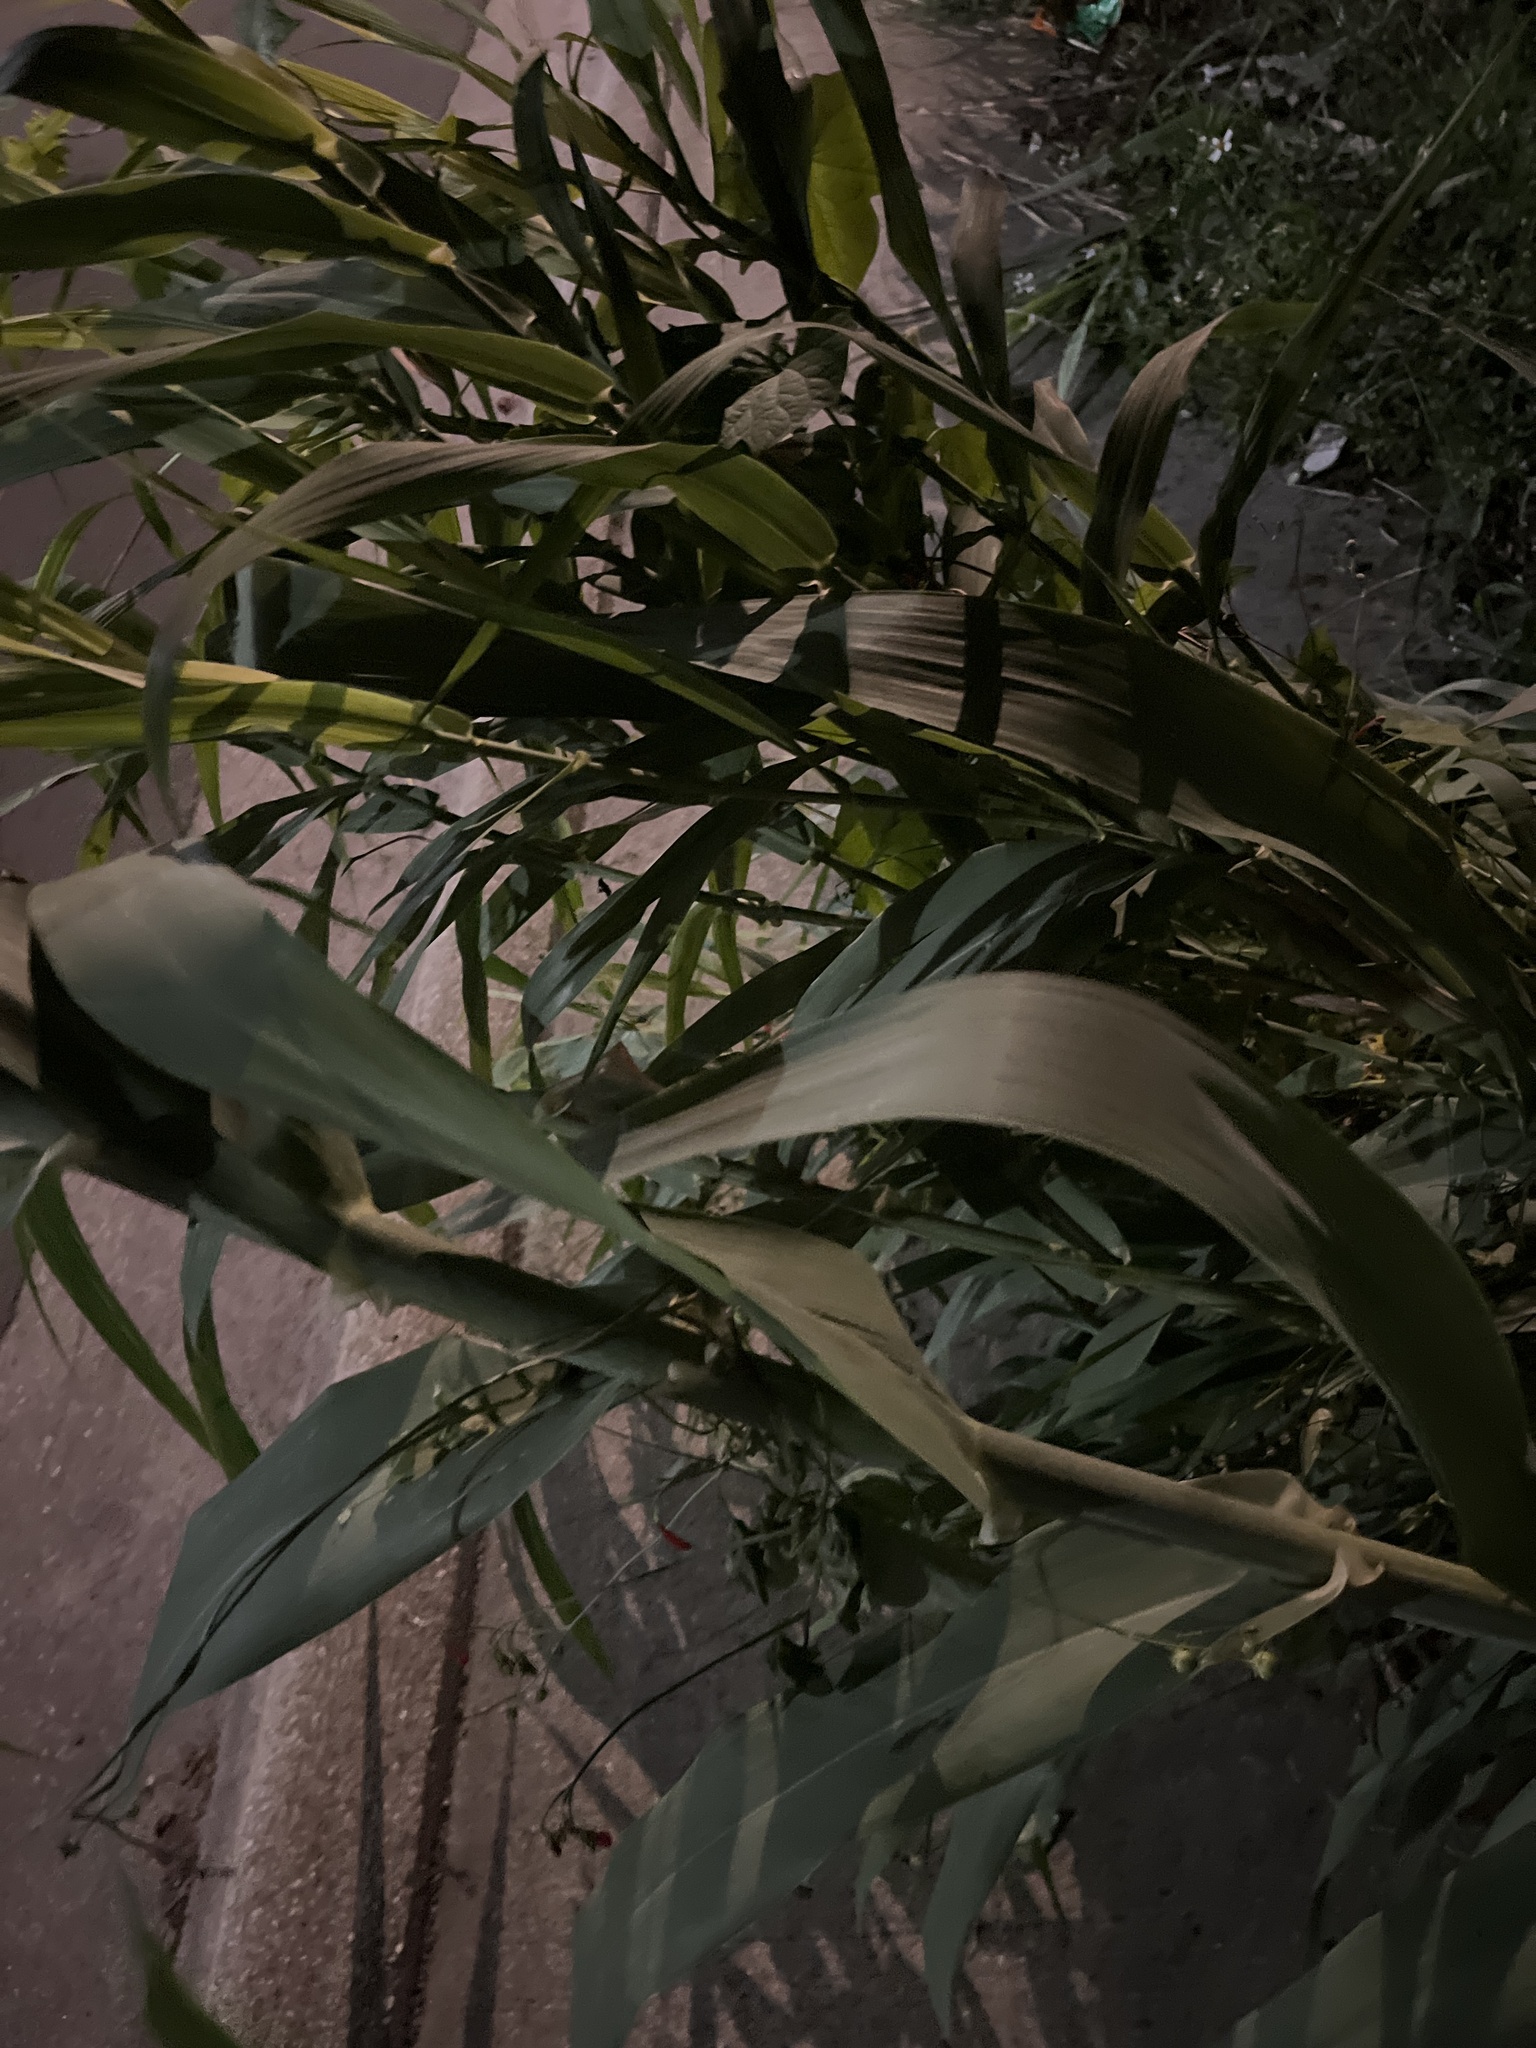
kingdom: Plantae
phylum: Tracheophyta
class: Liliopsida
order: Poales
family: Poaceae
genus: Arundo
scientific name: Arundo donax
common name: Giant reed
